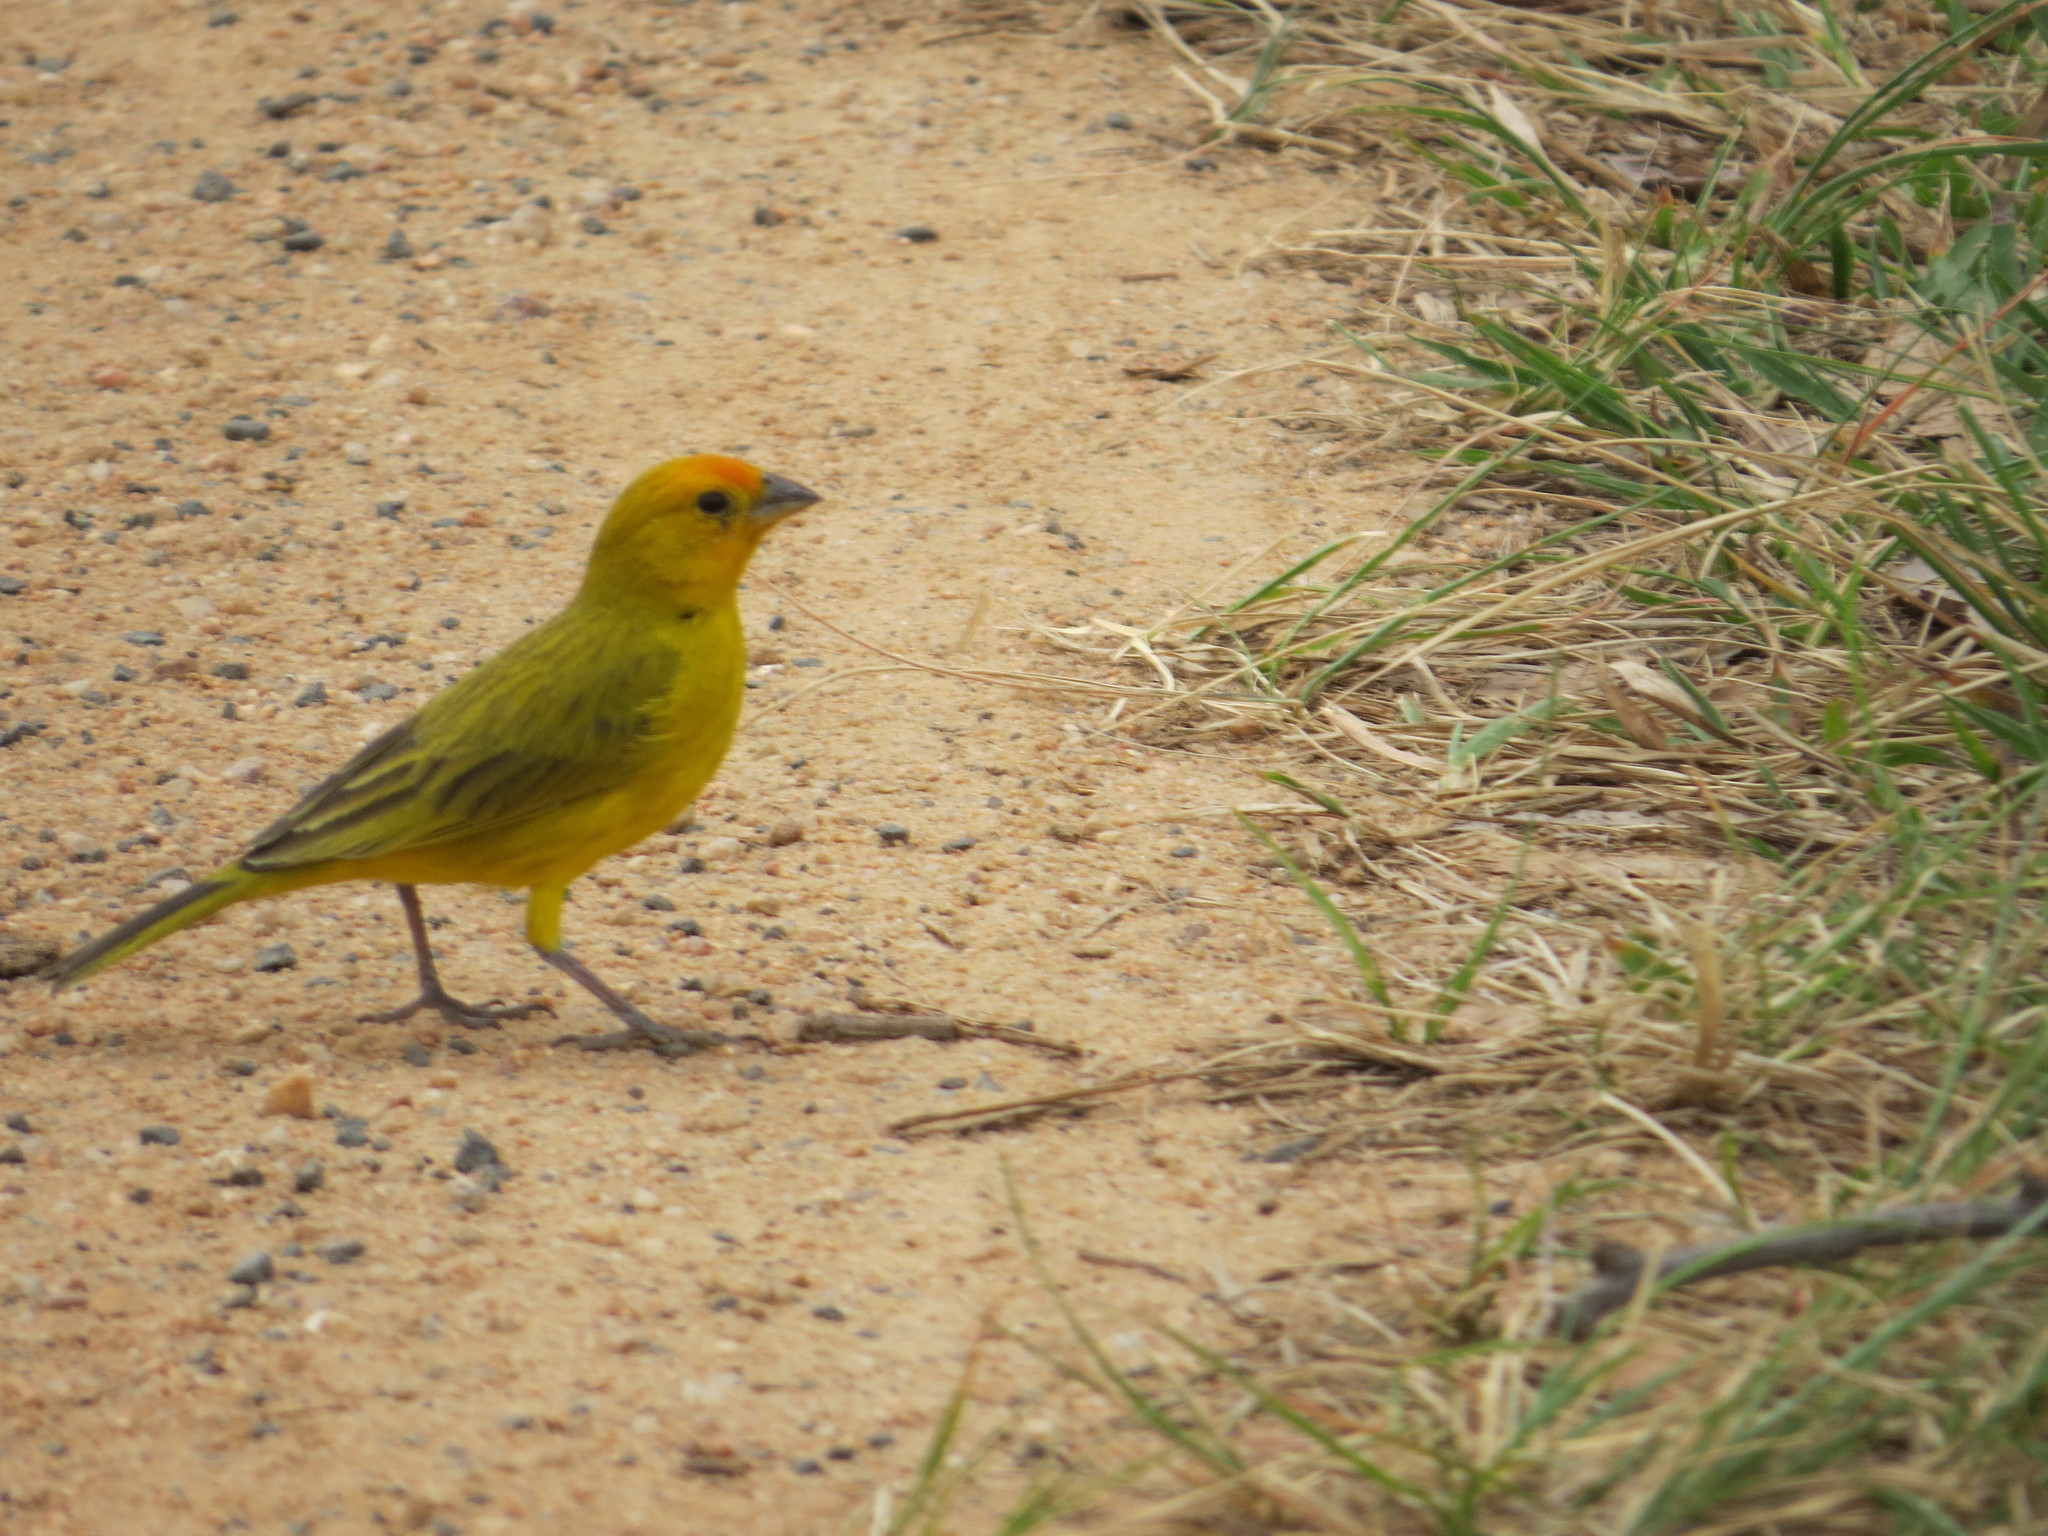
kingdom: Animalia
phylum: Chordata
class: Aves
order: Passeriformes
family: Thraupidae
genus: Sicalis
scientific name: Sicalis flaveola
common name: Saffron finch
